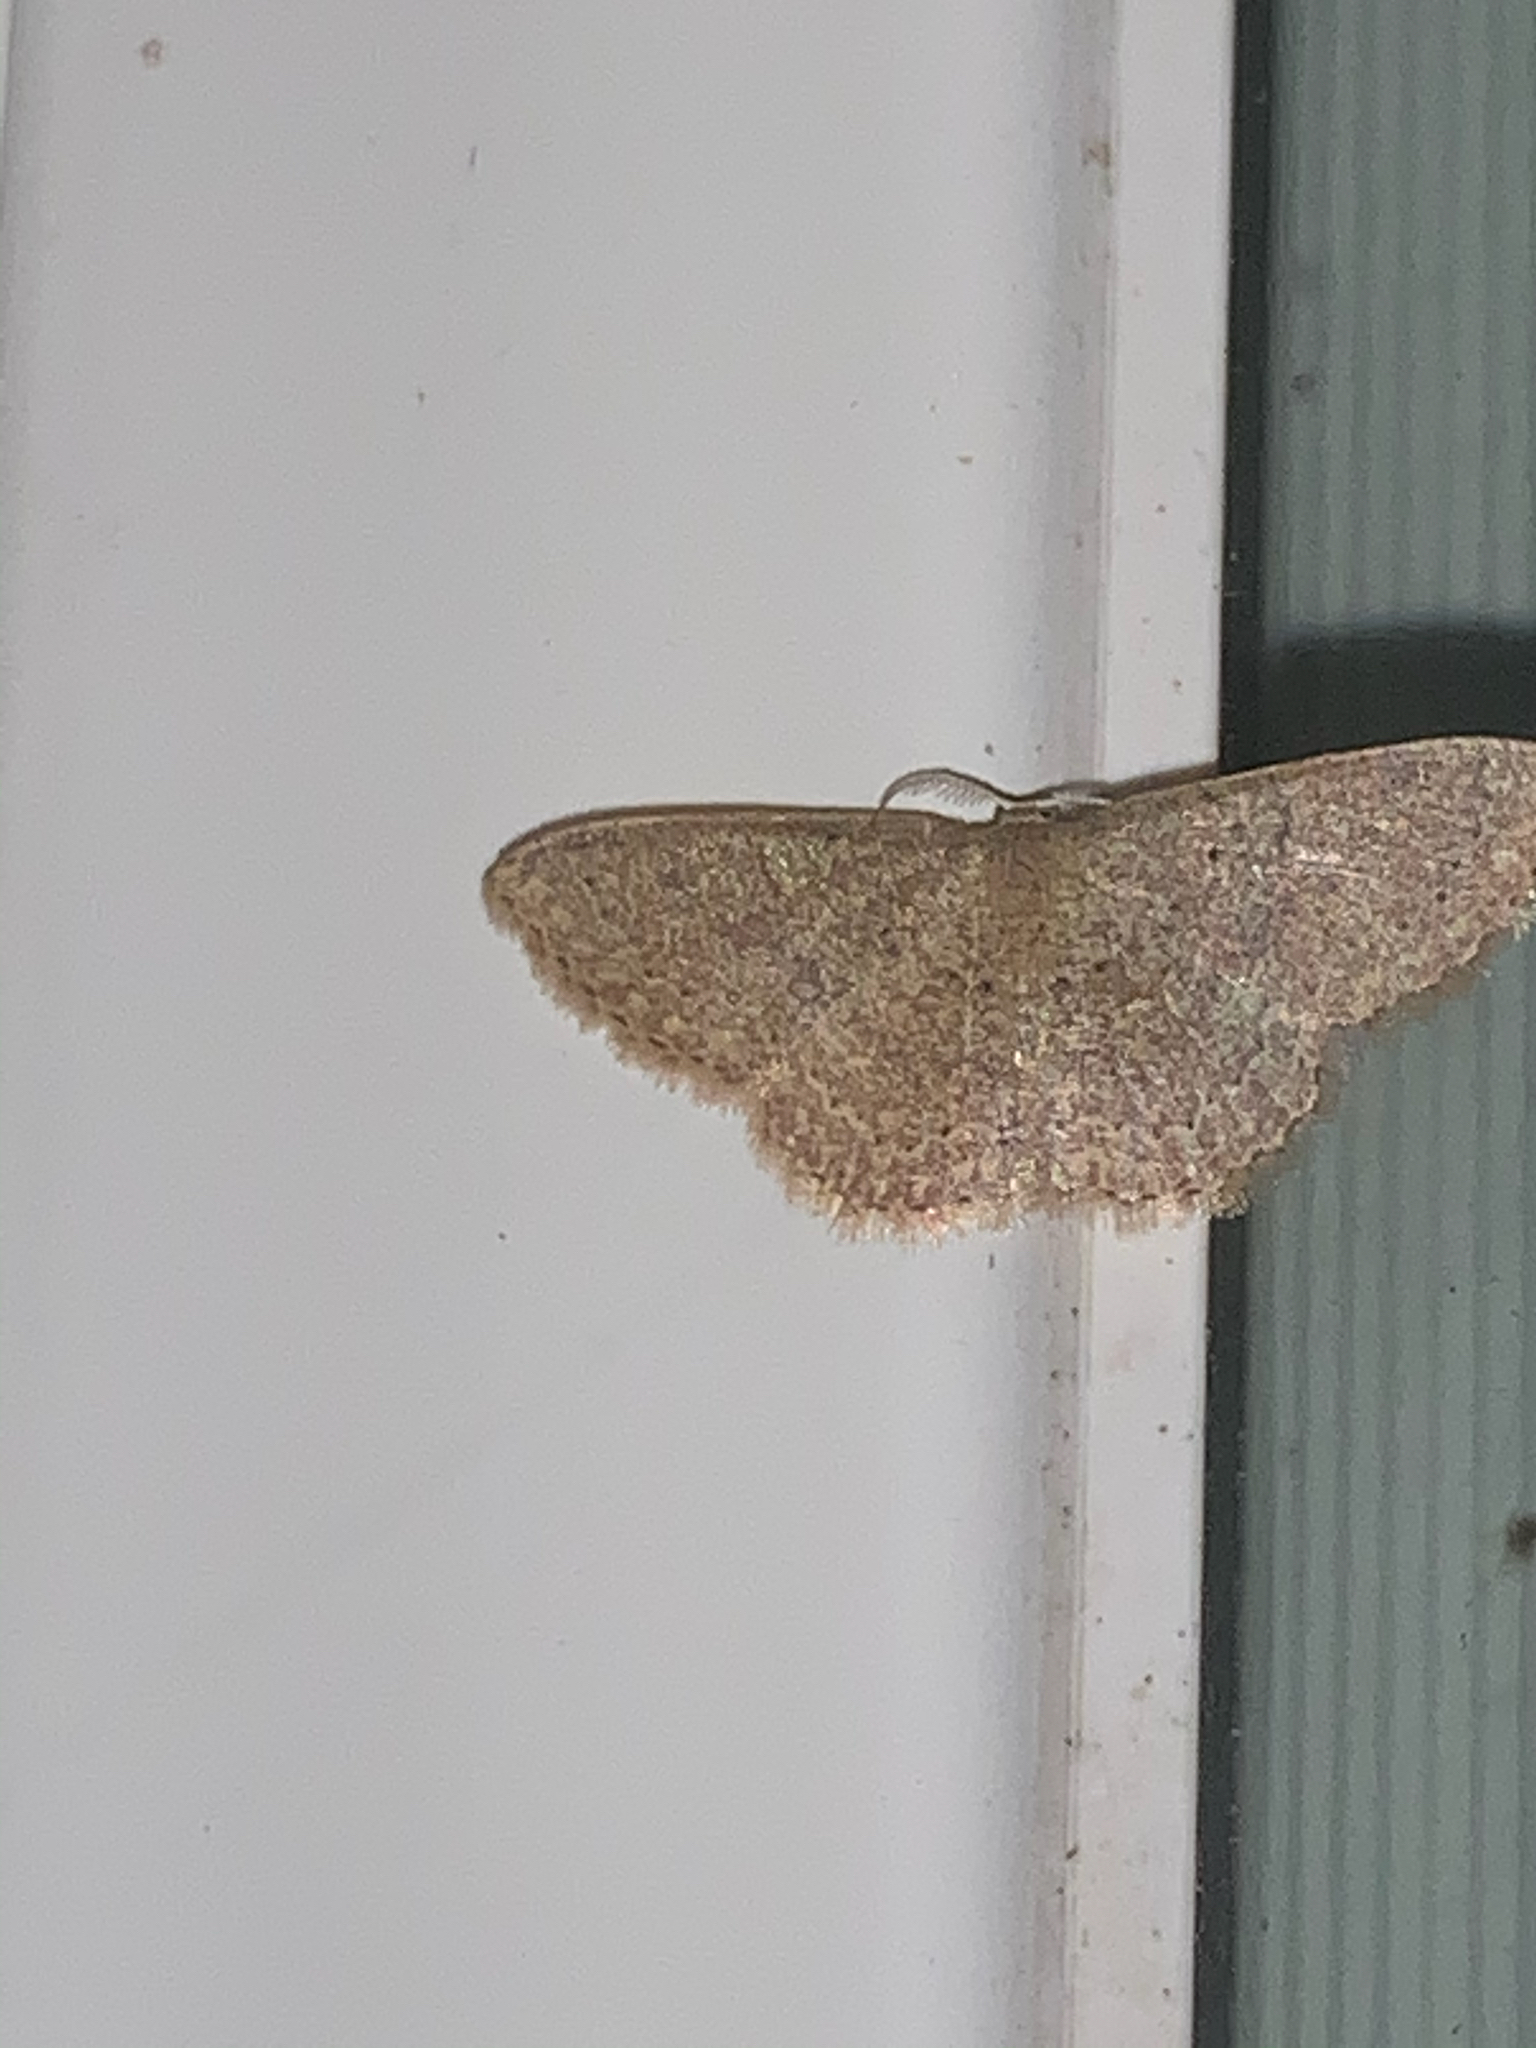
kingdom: Animalia
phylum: Arthropoda
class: Insecta
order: Lepidoptera
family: Geometridae
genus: Pleuroprucha
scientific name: Pleuroprucha insulsaria
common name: Common tan wave
